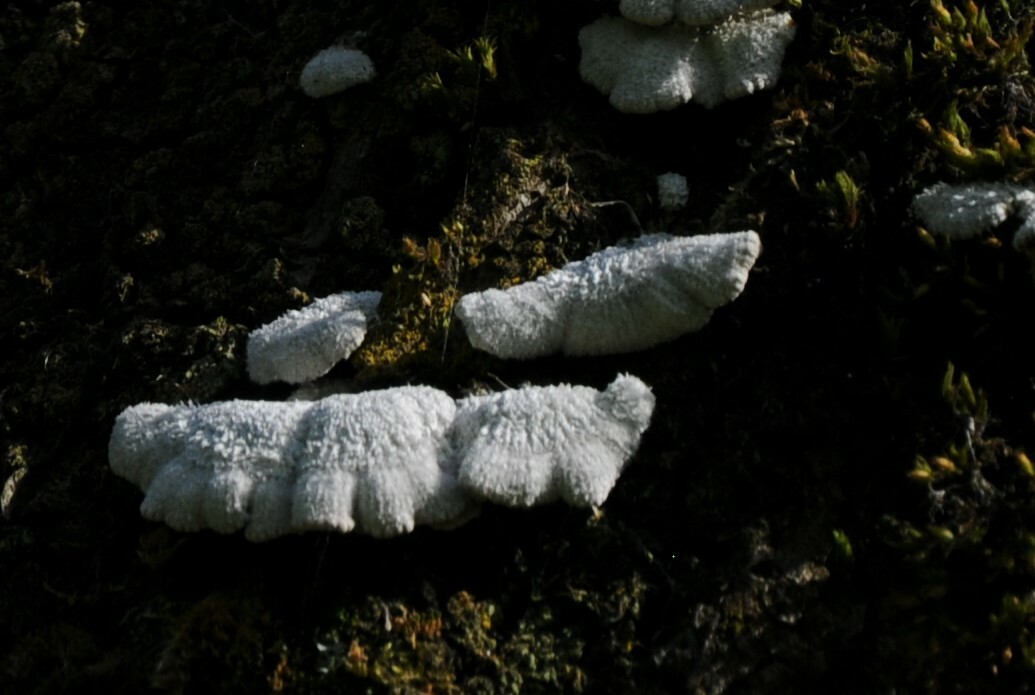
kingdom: Fungi
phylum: Basidiomycota
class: Agaricomycetes
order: Agaricales
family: Schizophyllaceae
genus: Schizophyllum
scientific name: Schizophyllum commune
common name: Common porecrust
